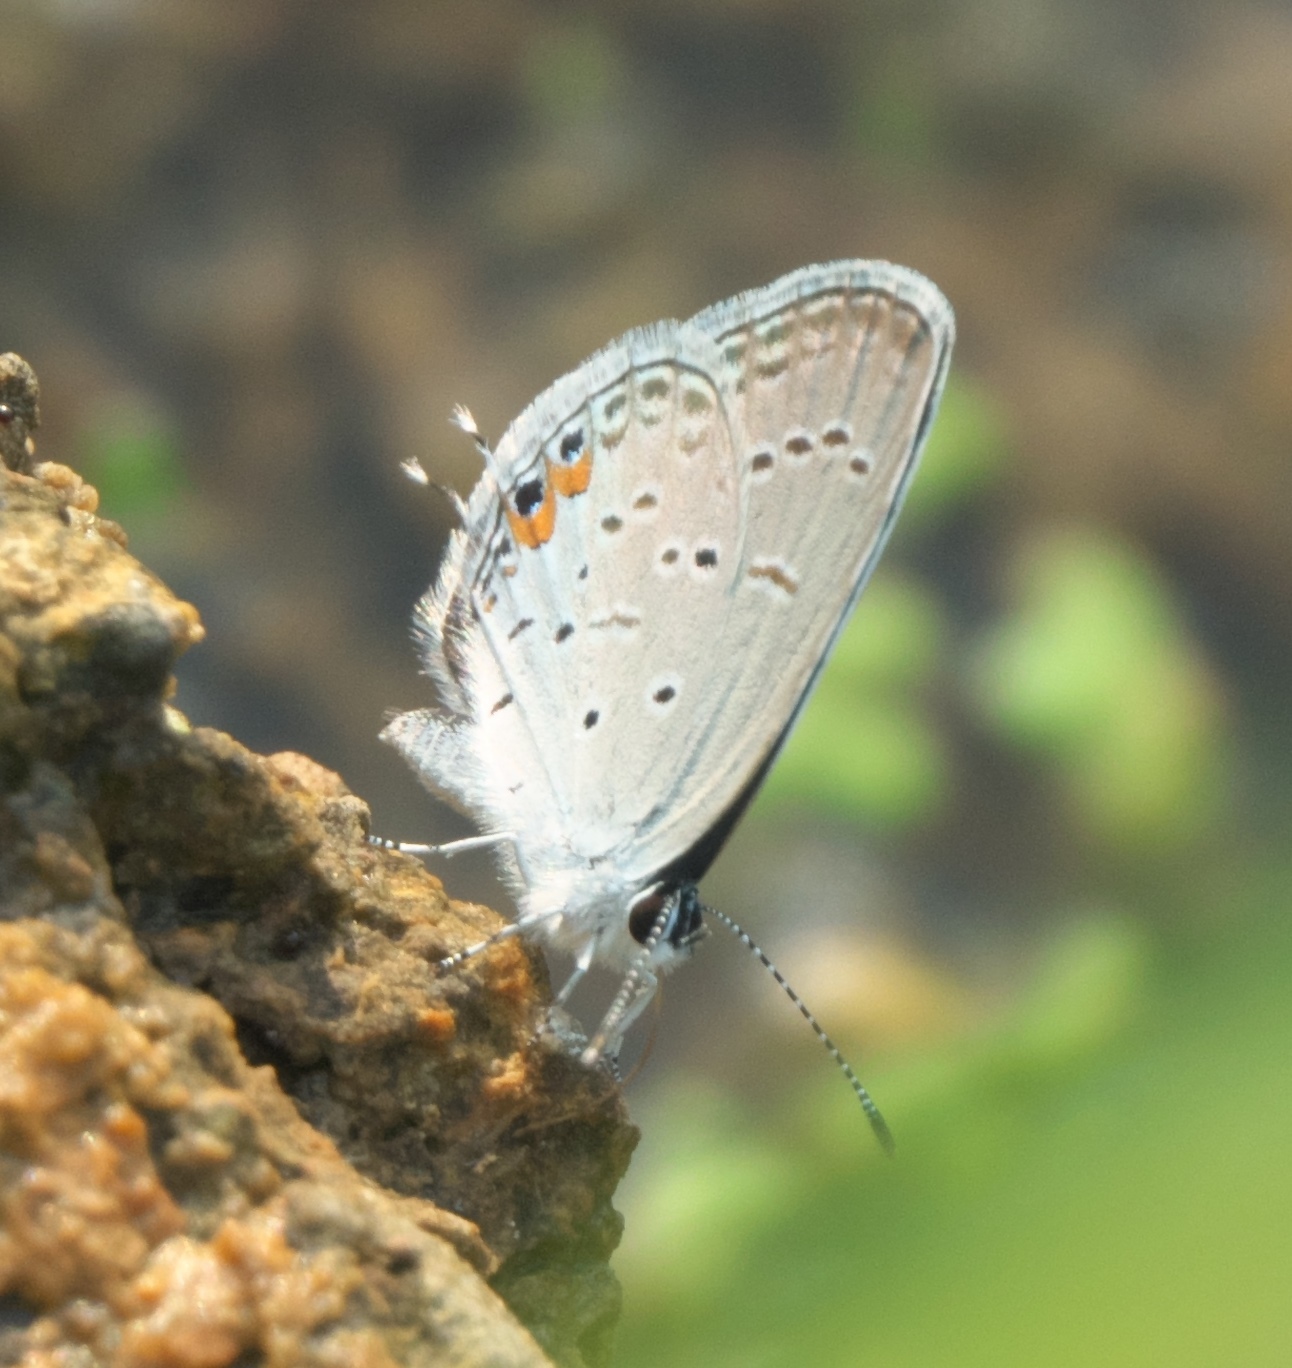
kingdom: Animalia
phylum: Arthropoda
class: Insecta
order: Lepidoptera
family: Lycaenidae
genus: Elkalyce
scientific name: Elkalyce comyntas
